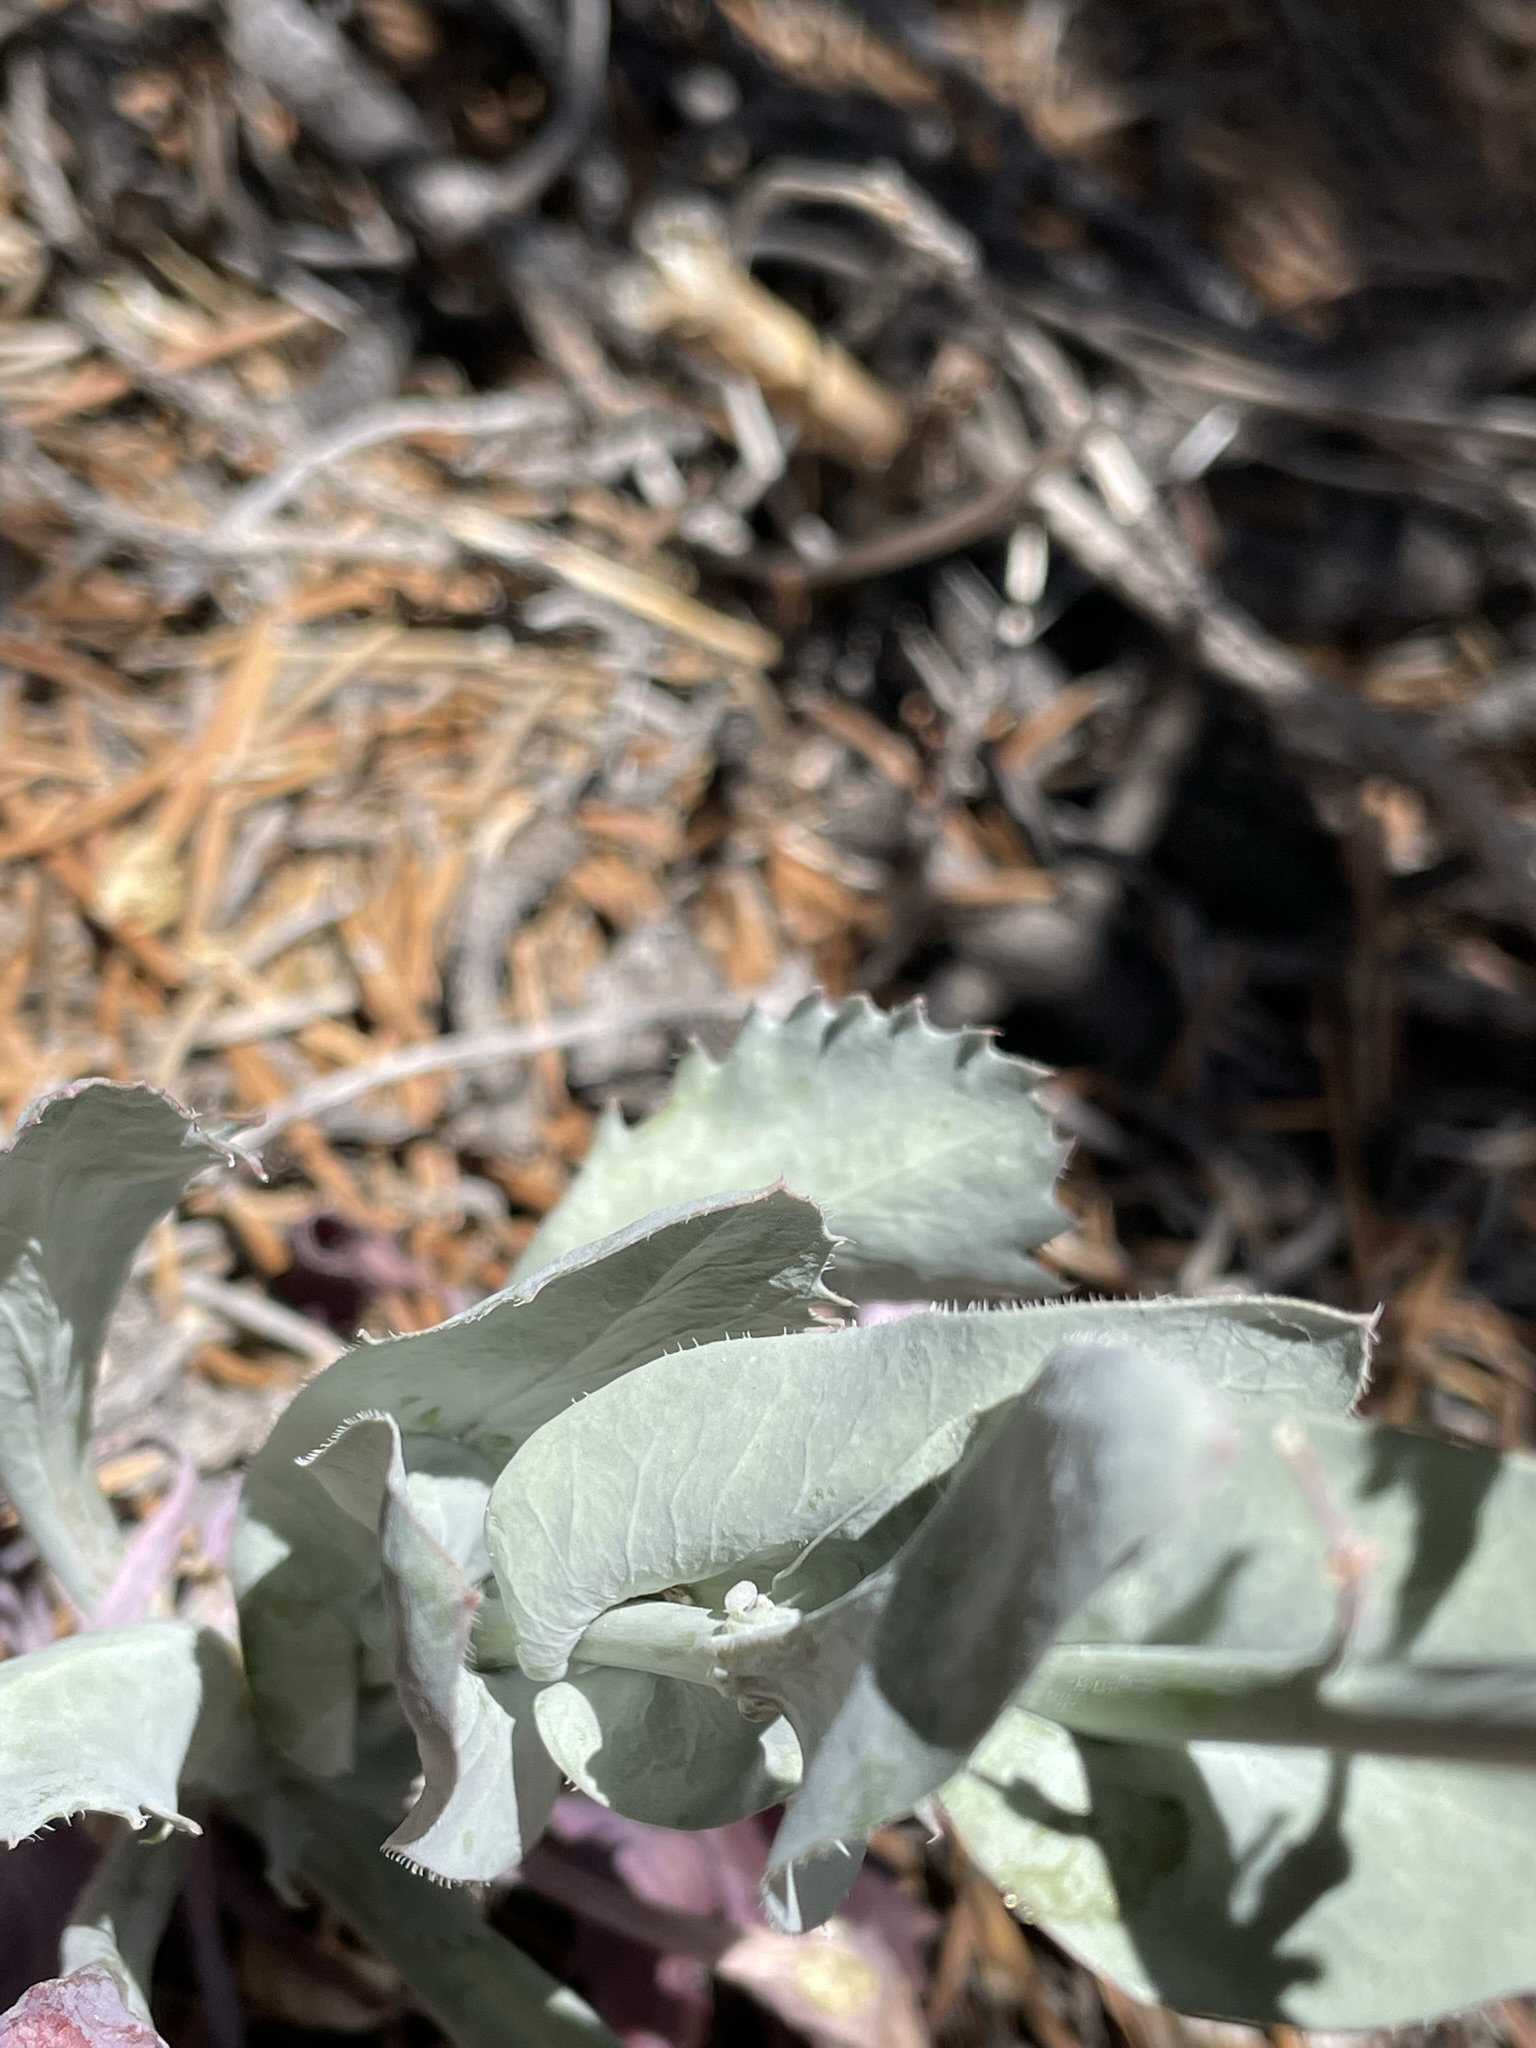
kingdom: Plantae
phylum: Tracheophyta
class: Magnoliopsida
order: Brassicales
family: Brassicaceae
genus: Streptanthus
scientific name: Streptanthus cordatus
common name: Heart-leaf jewel-flower
